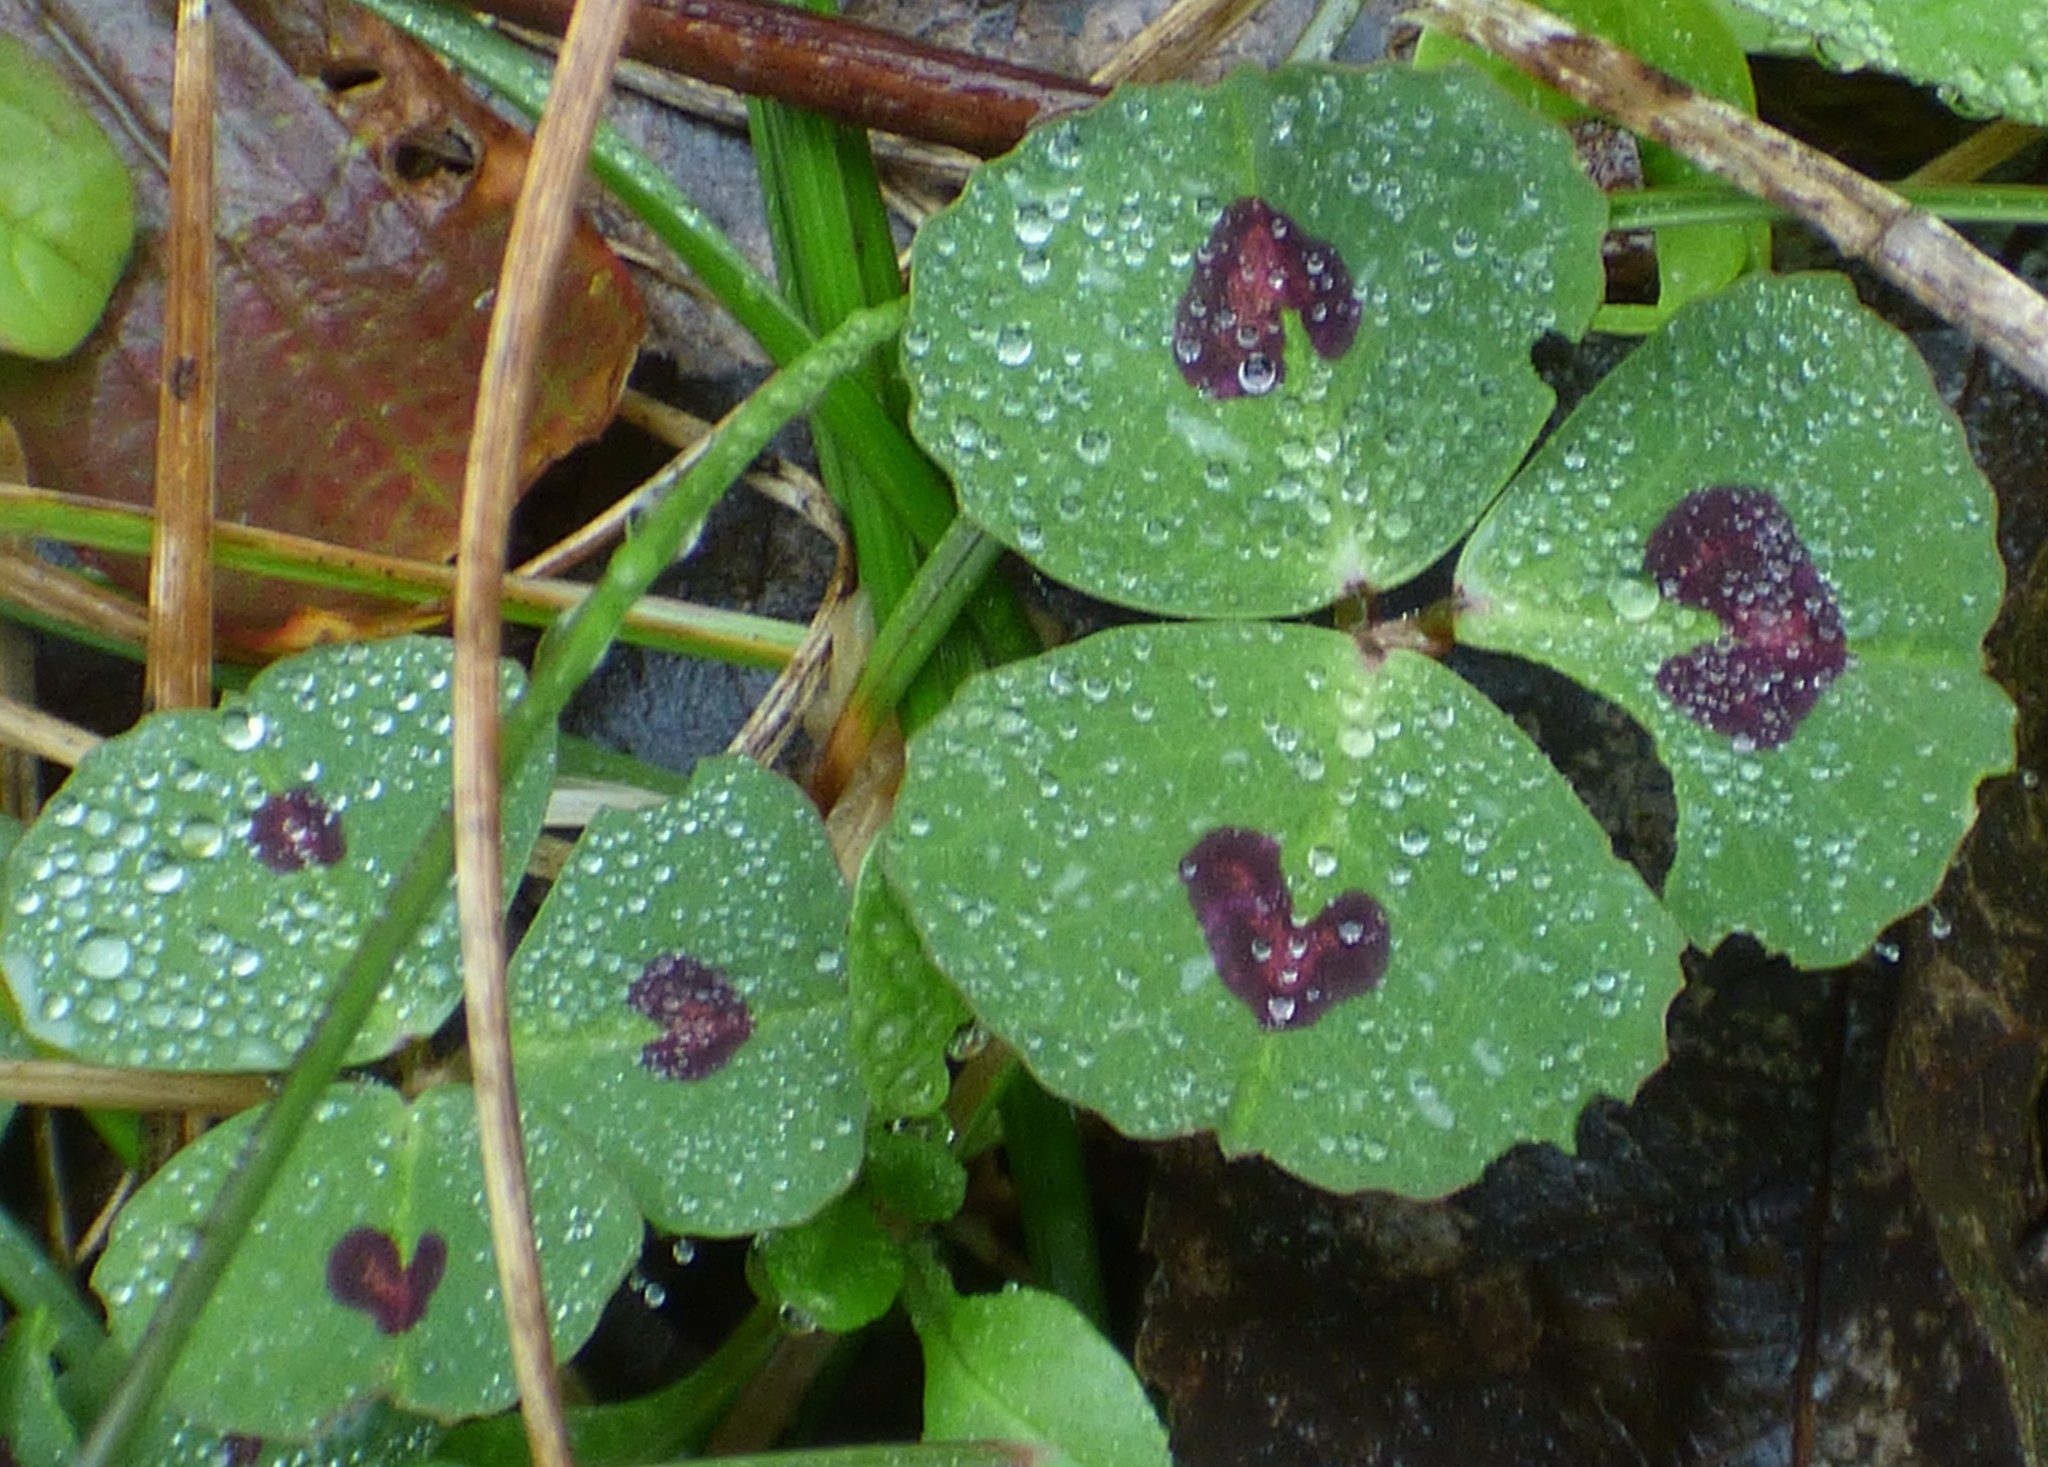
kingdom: Plantae
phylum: Tracheophyta
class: Magnoliopsida
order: Fabales
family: Fabaceae
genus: Medicago
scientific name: Medicago arabica
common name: Spotted medick
